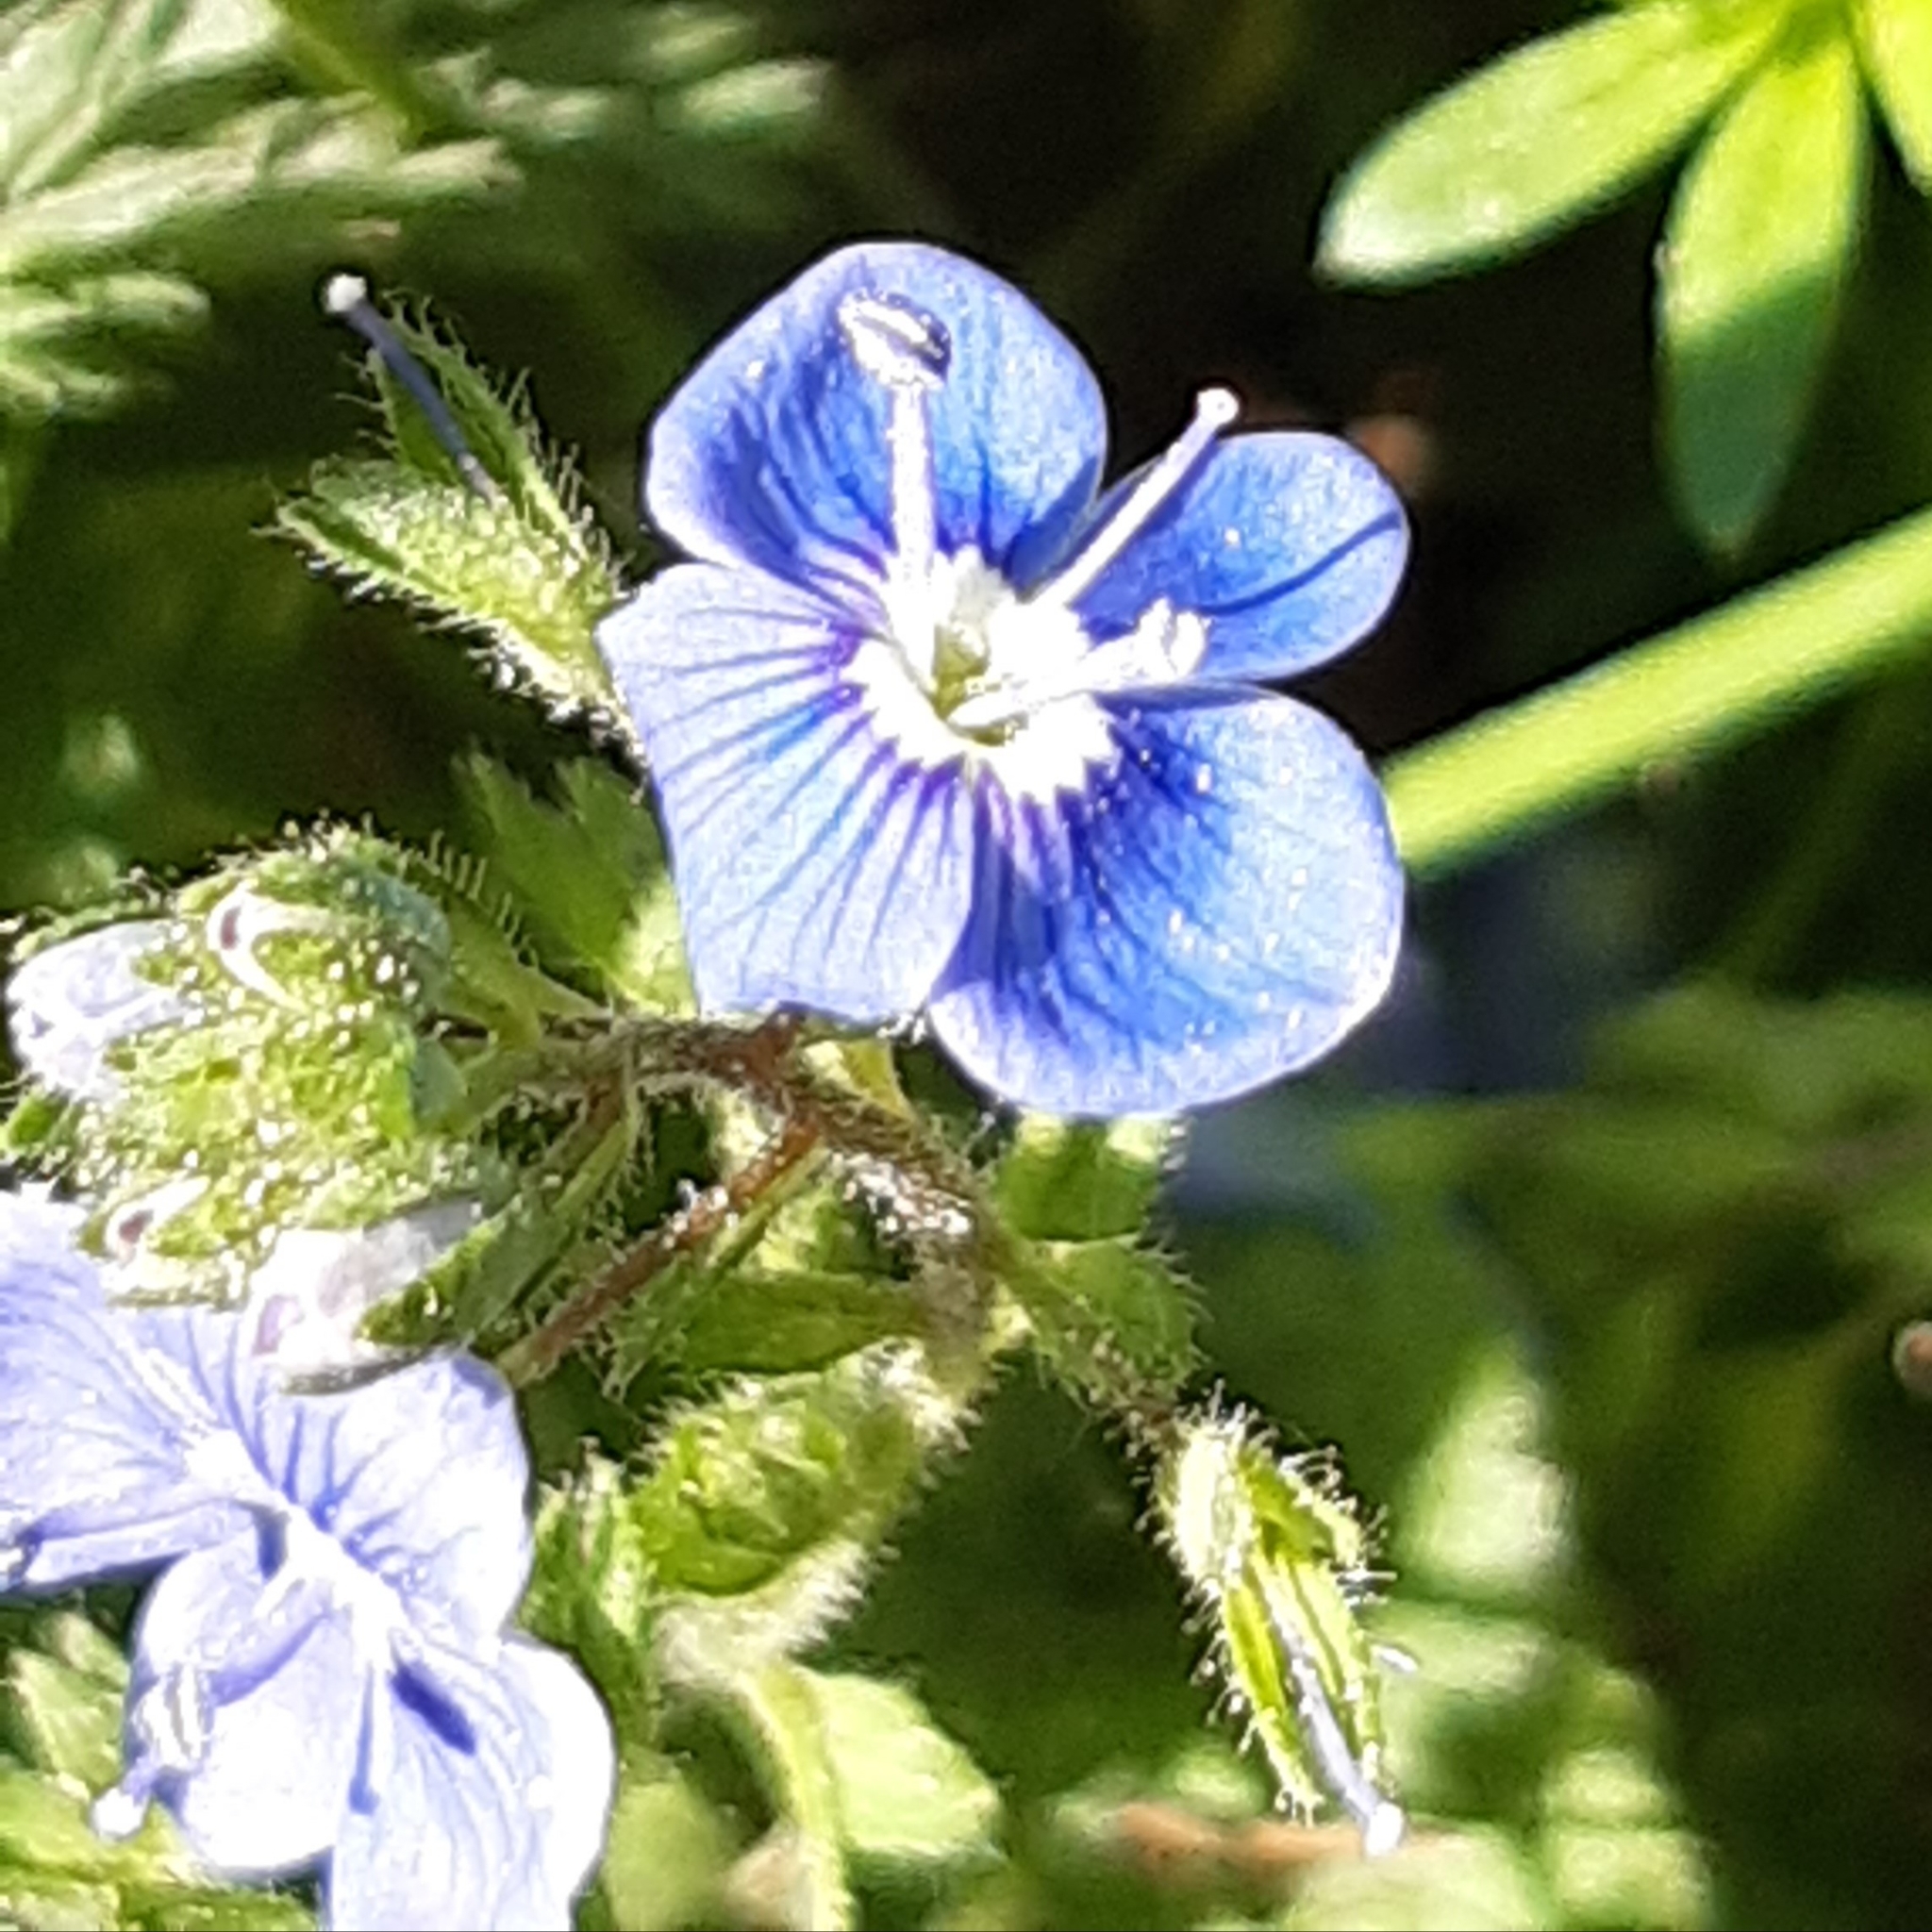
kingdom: Plantae
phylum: Tracheophyta
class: Magnoliopsida
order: Lamiales
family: Plantaginaceae
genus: Veronica
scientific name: Veronica chamaedrys
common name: Germander speedwell
